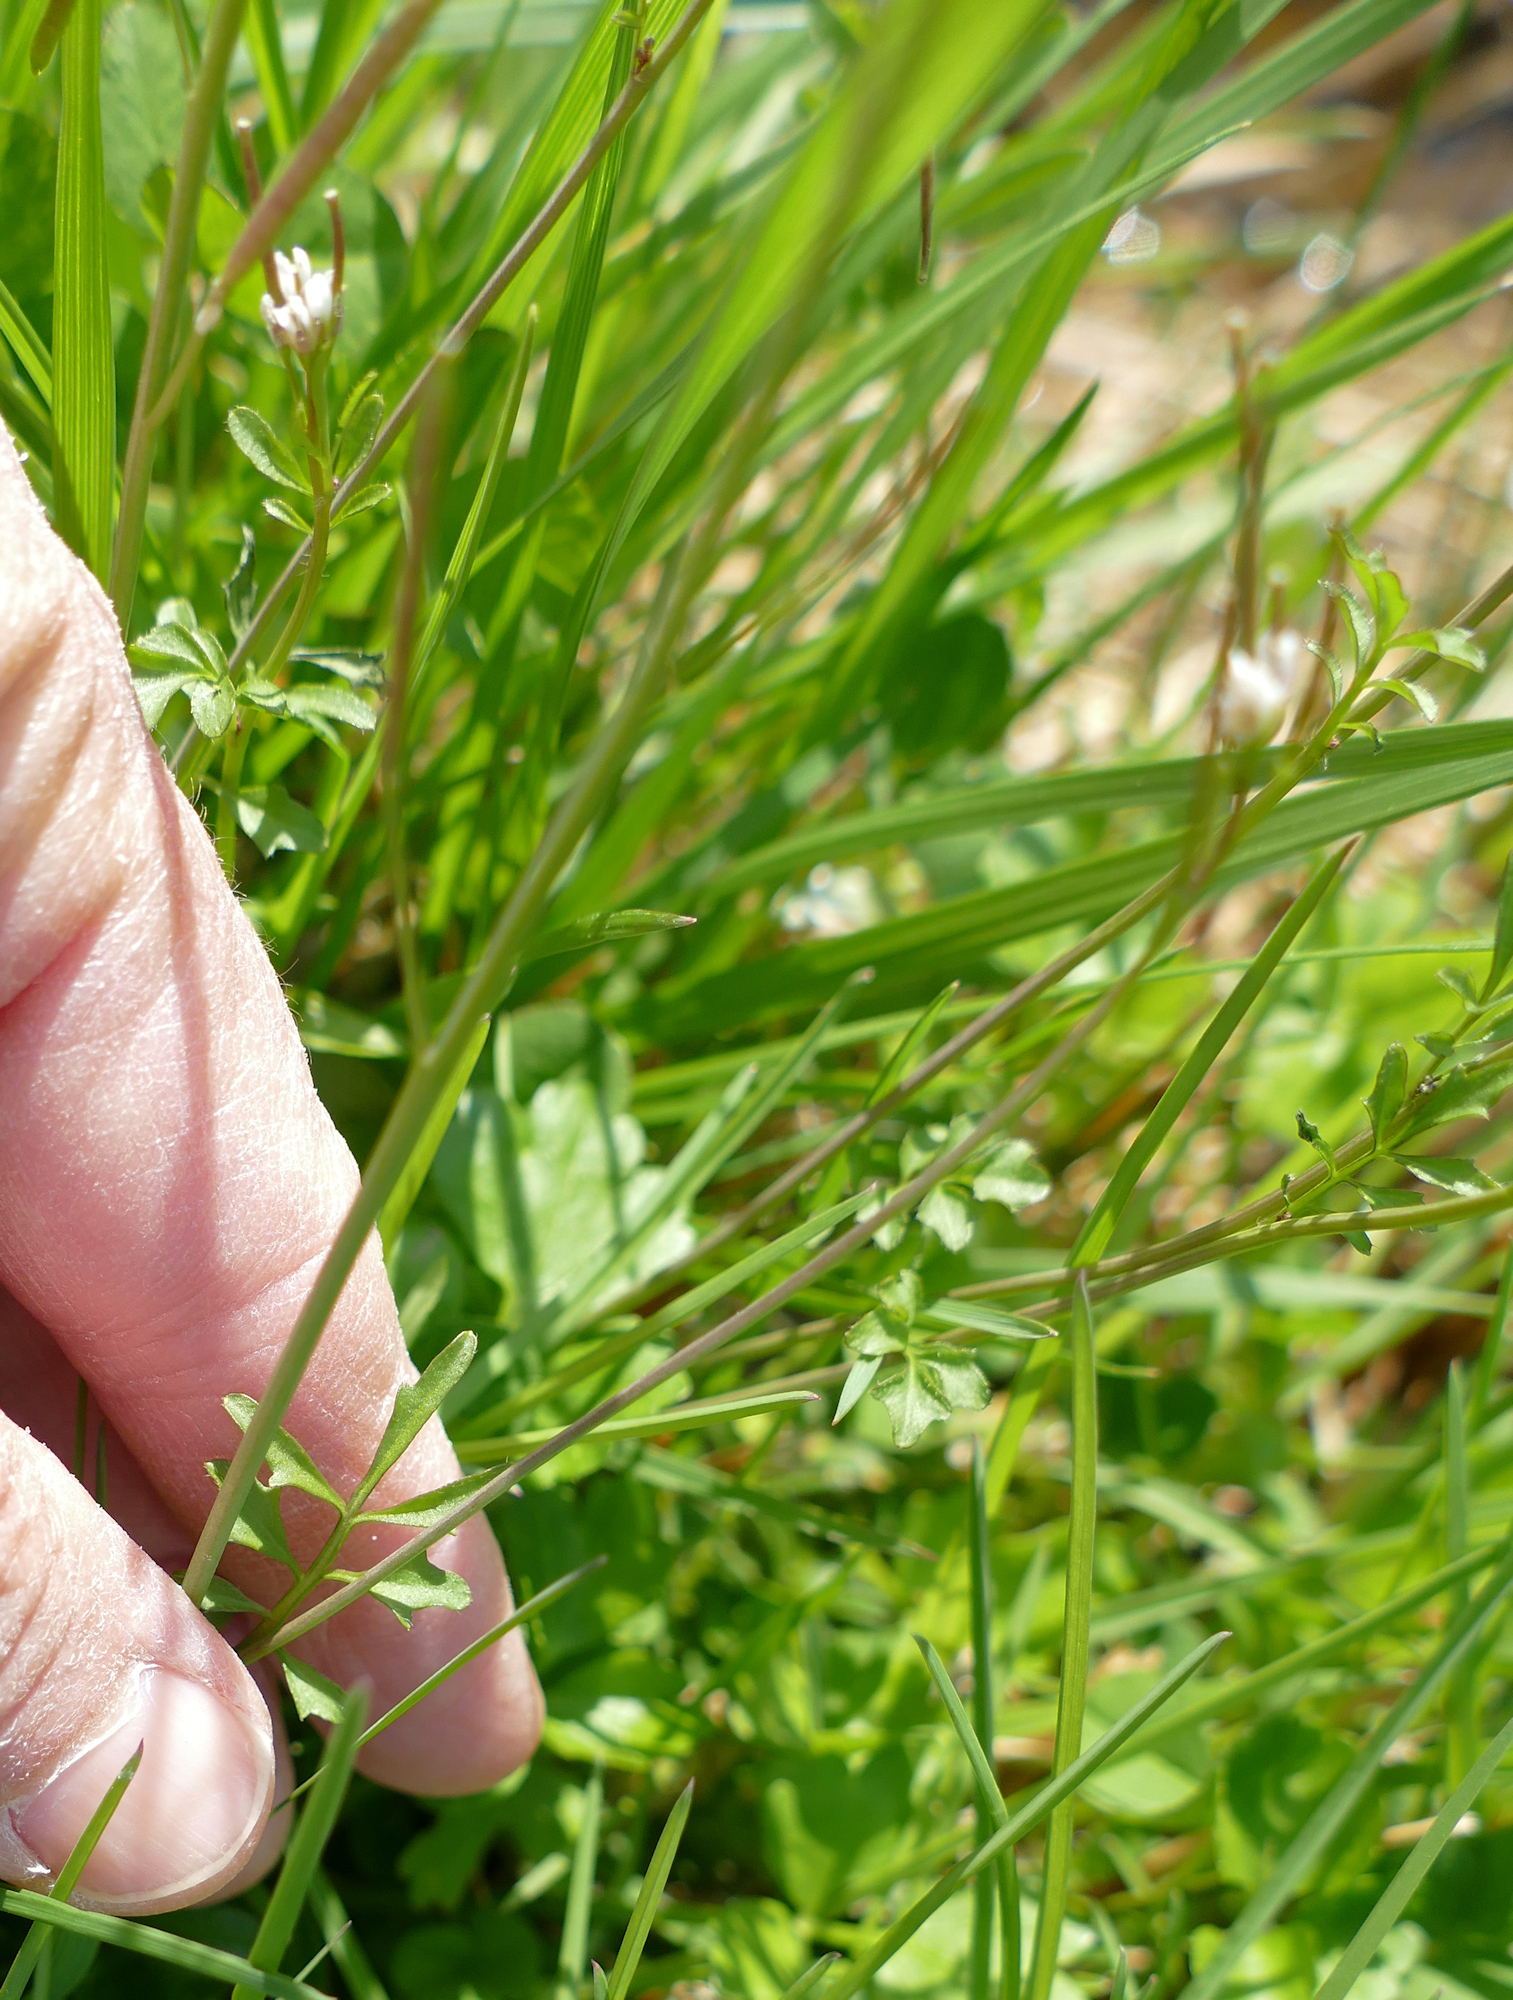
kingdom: Plantae
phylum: Tracheophyta
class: Magnoliopsida
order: Brassicales
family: Brassicaceae
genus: Cardamine
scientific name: Cardamine occulta
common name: Asian wavy bittercress
